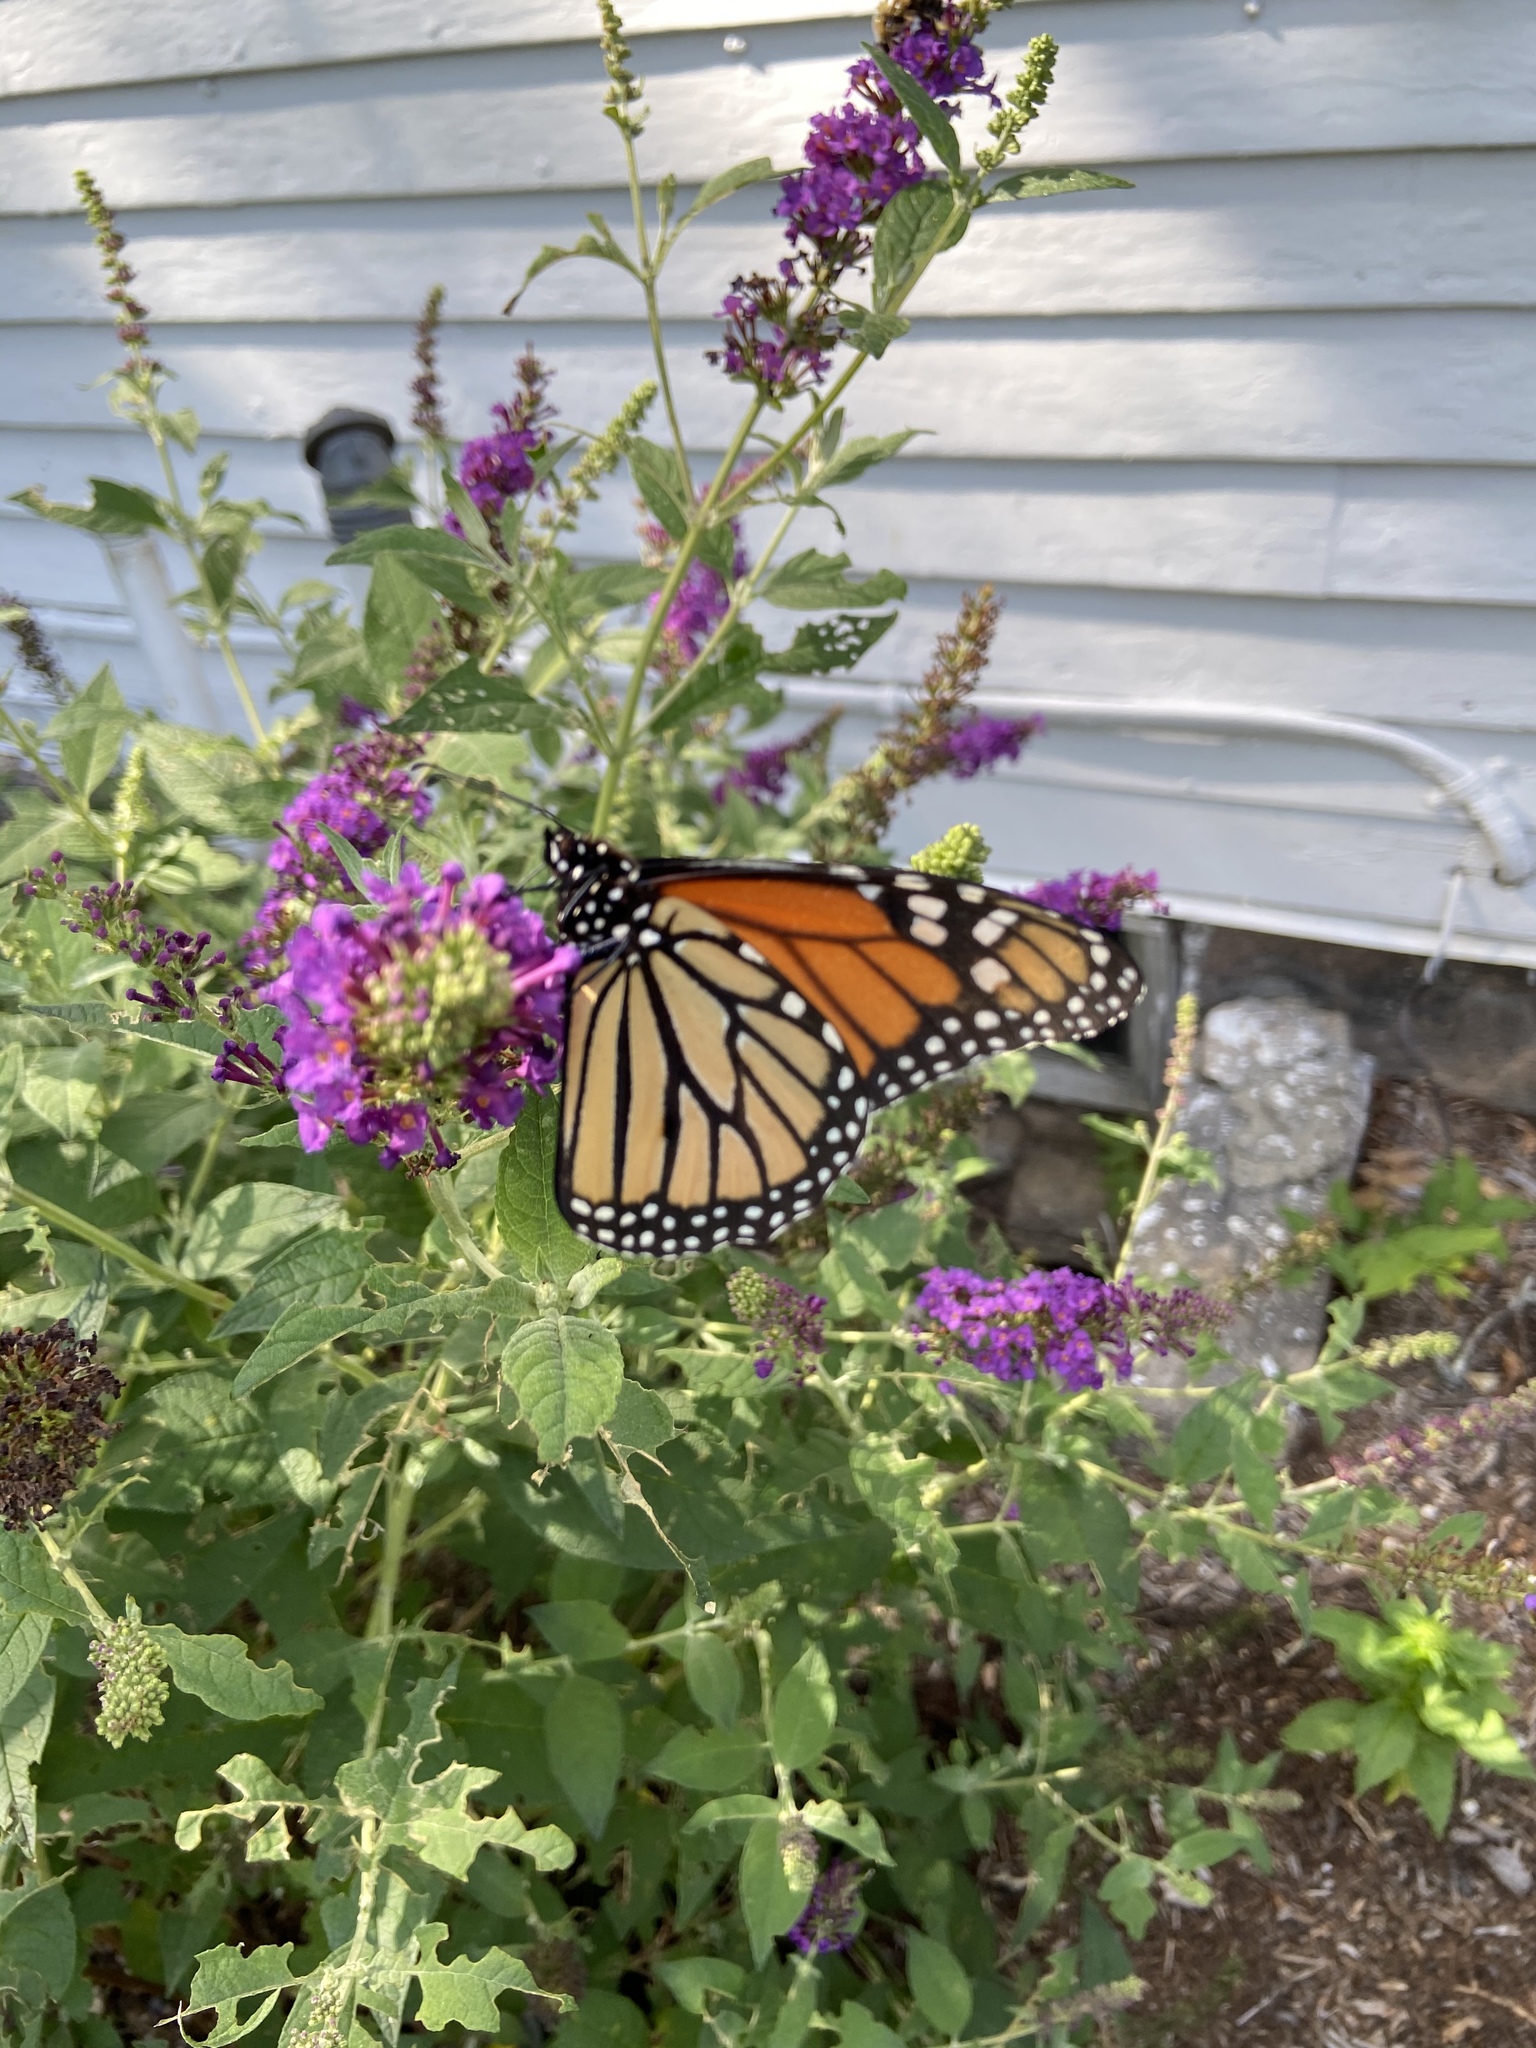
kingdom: Animalia
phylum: Arthropoda
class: Insecta
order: Lepidoptera
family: Nymphalidae
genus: Danaus
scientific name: Danaus plexippus
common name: Monarch
